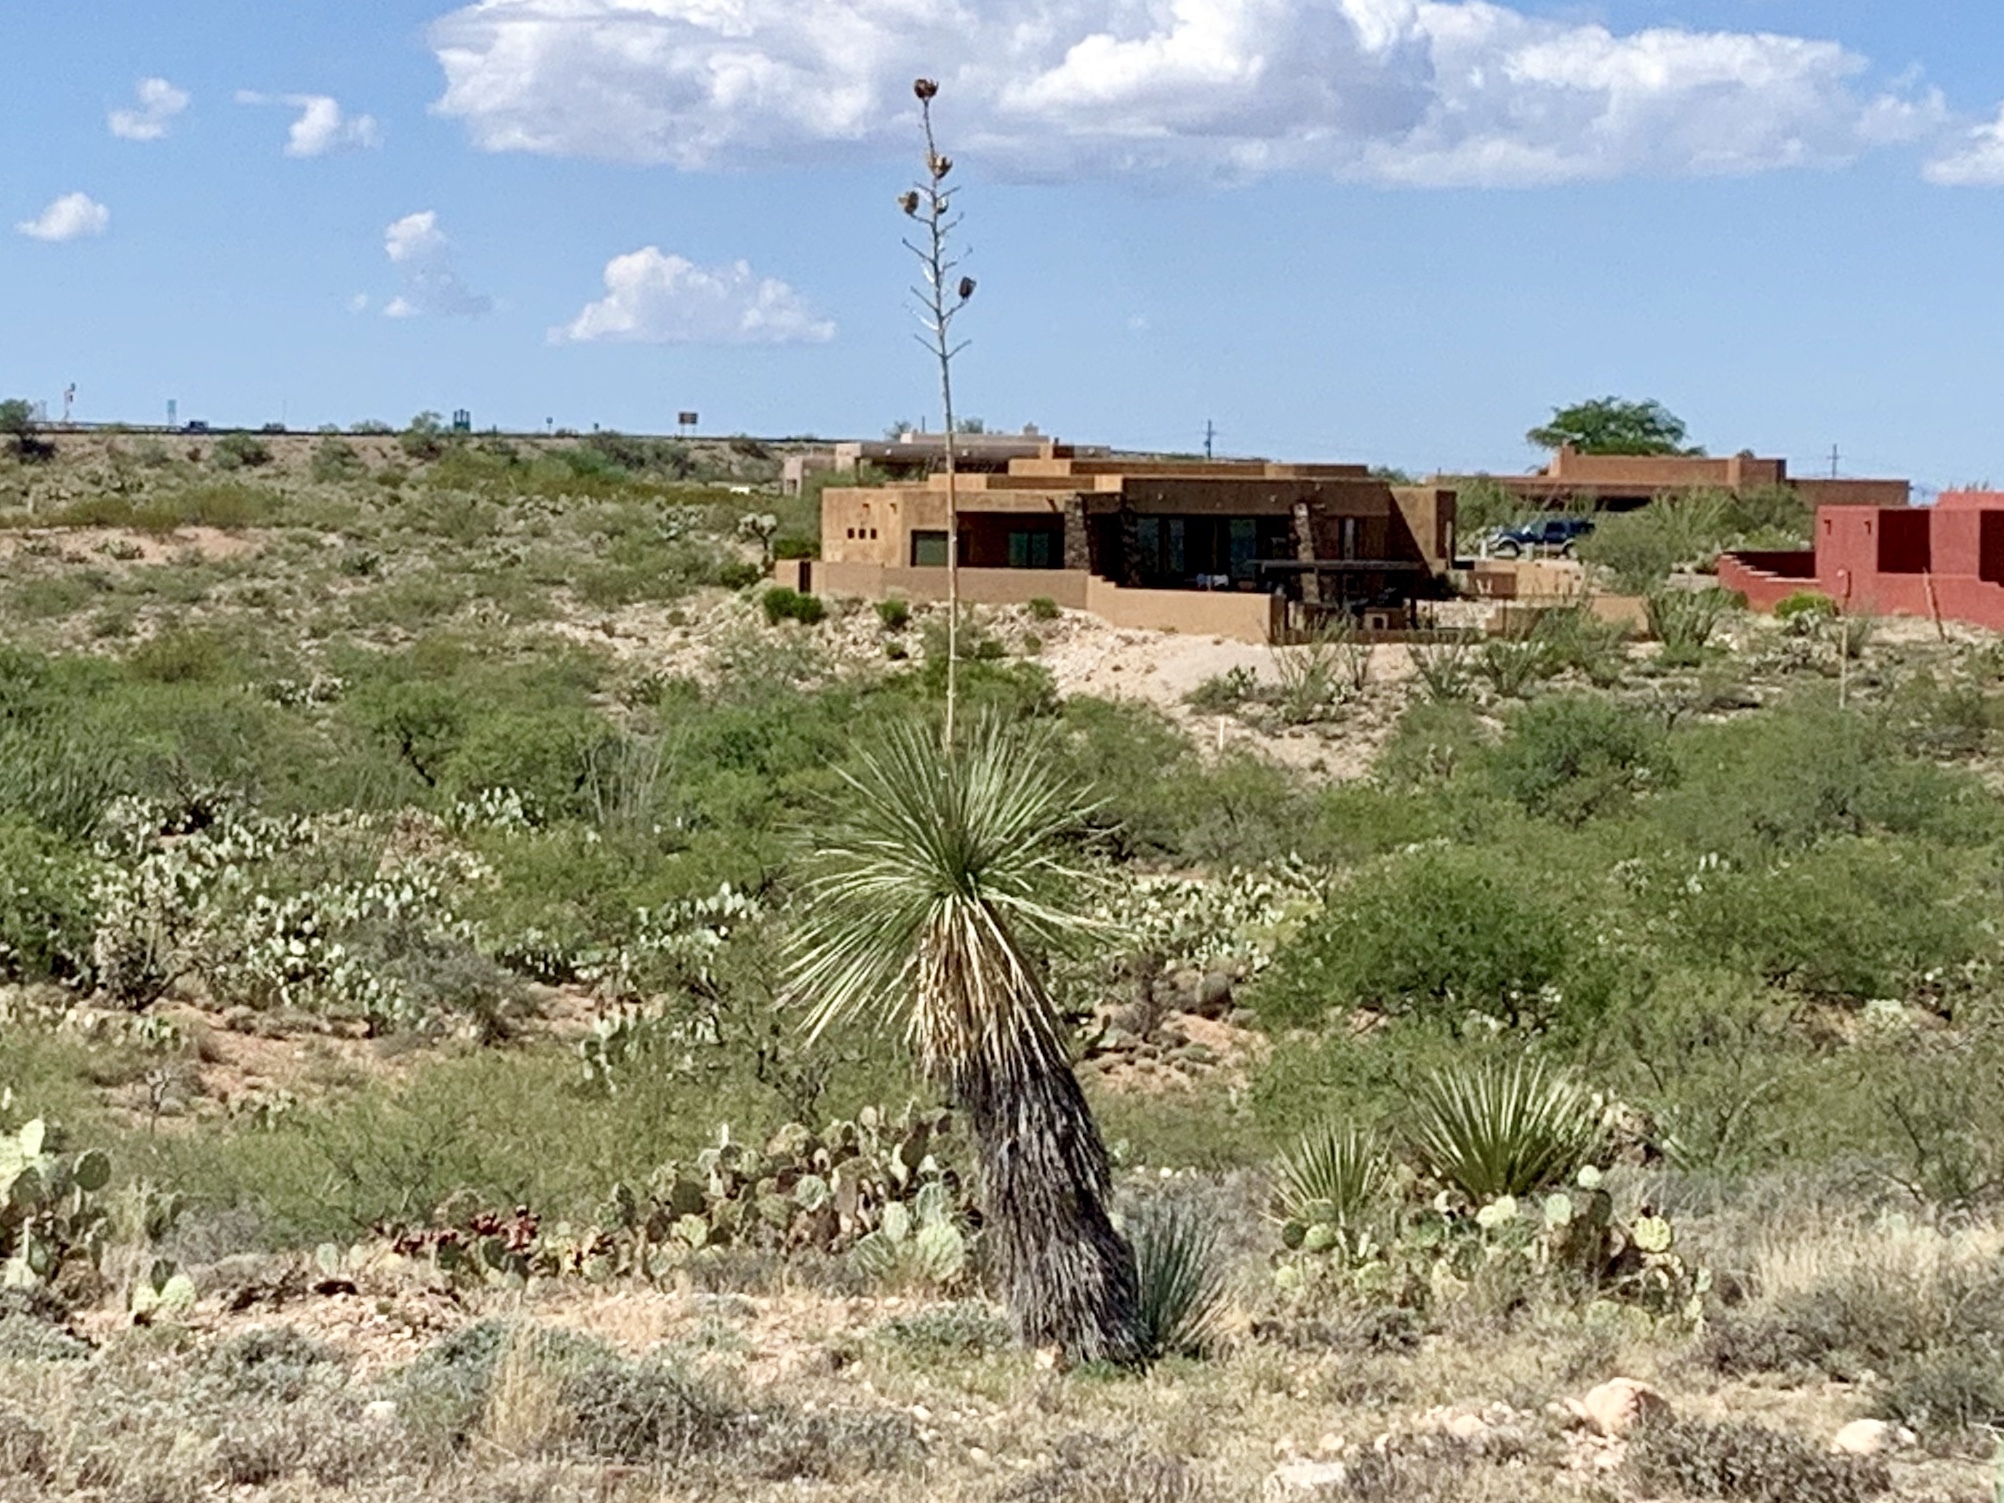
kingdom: Plantae
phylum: Tracheophyta
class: Liliopsida
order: Asparagales
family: Asparagaceae
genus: Yucca
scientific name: Yucca elata
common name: Palmella
